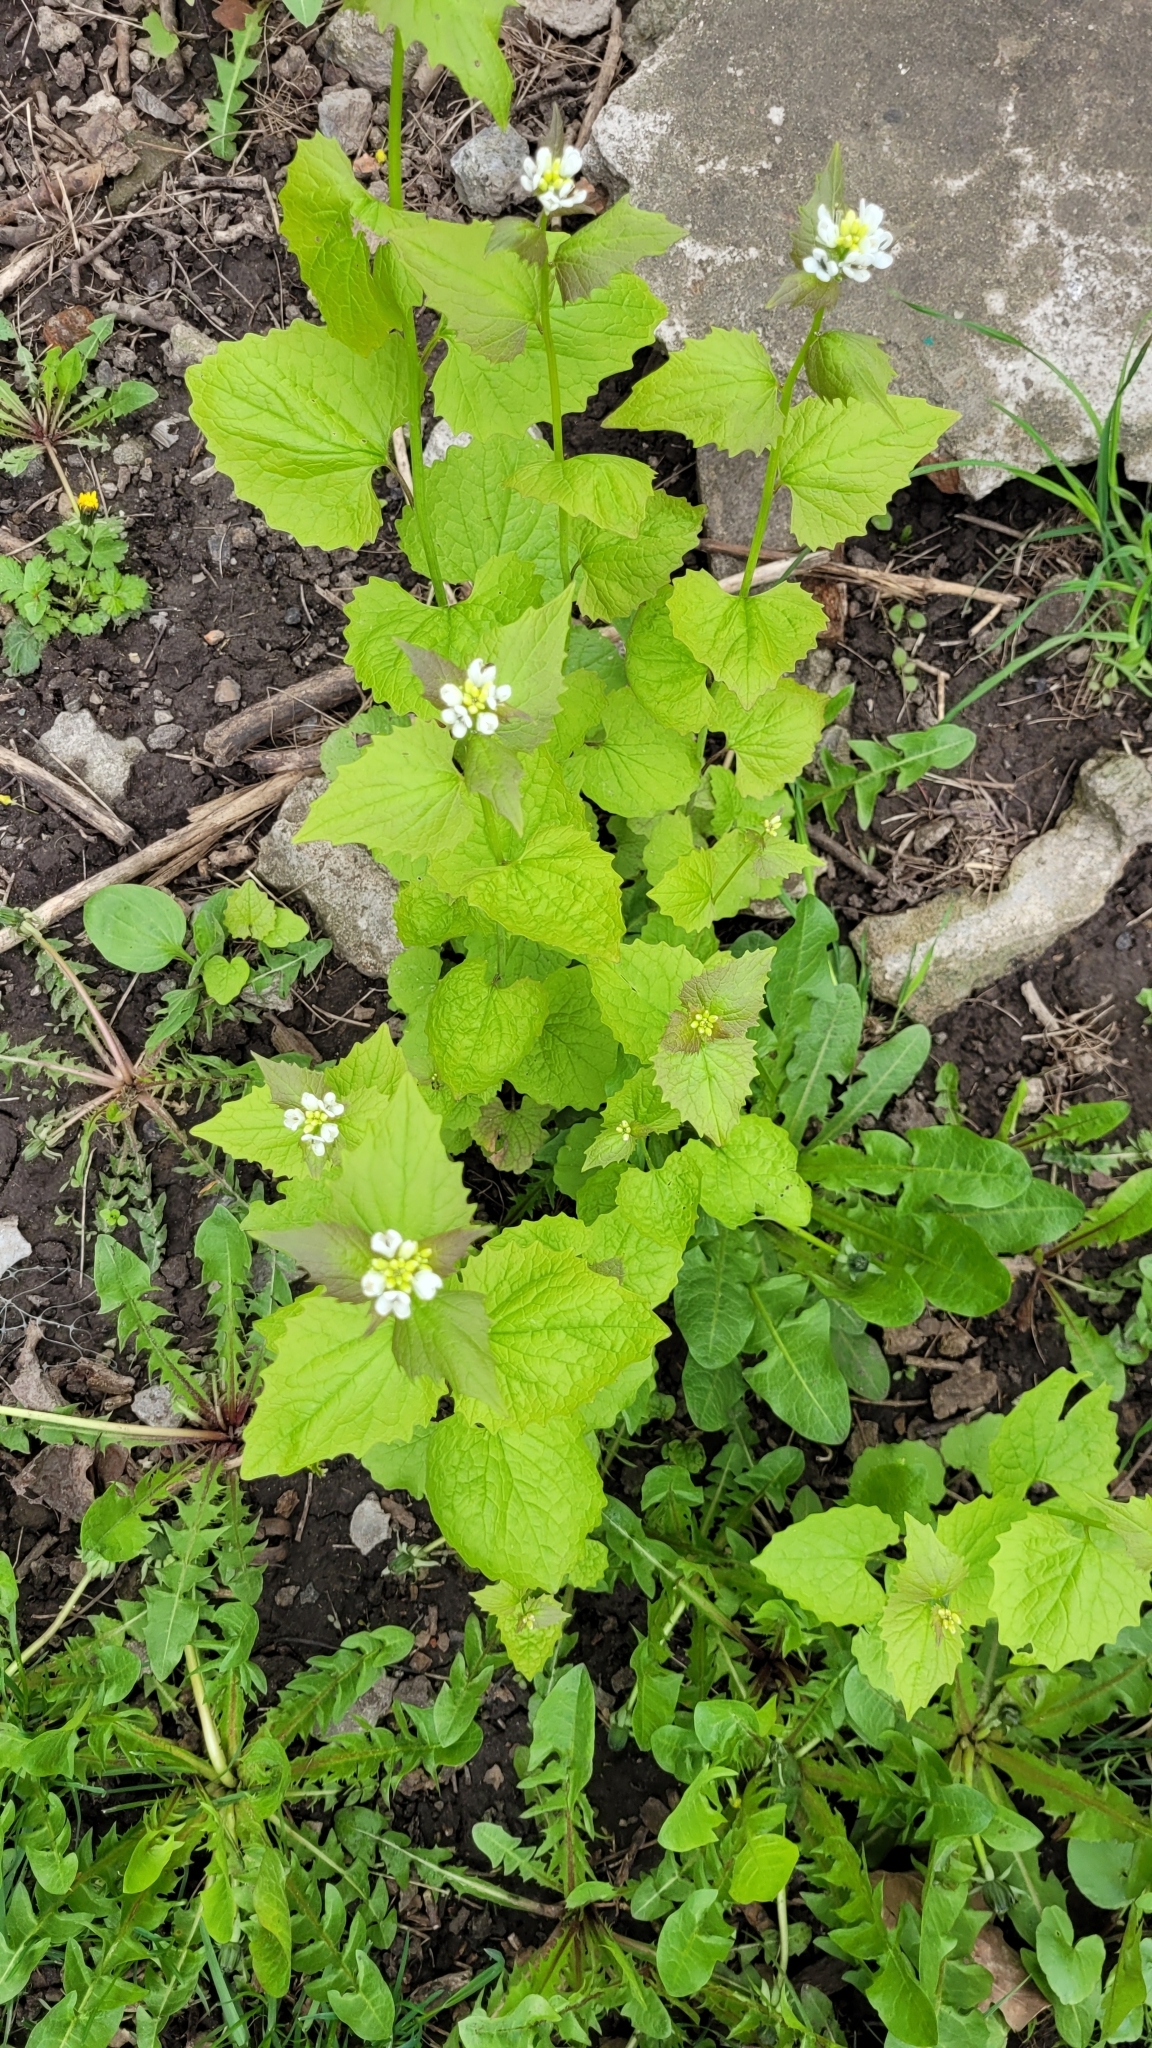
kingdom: Plantae
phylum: Tracheophyta
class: Magnoliopsida
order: Brassicales
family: Brassicaceae
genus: Alliaria
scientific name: Alliaria petiolata
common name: Garlic mustard
